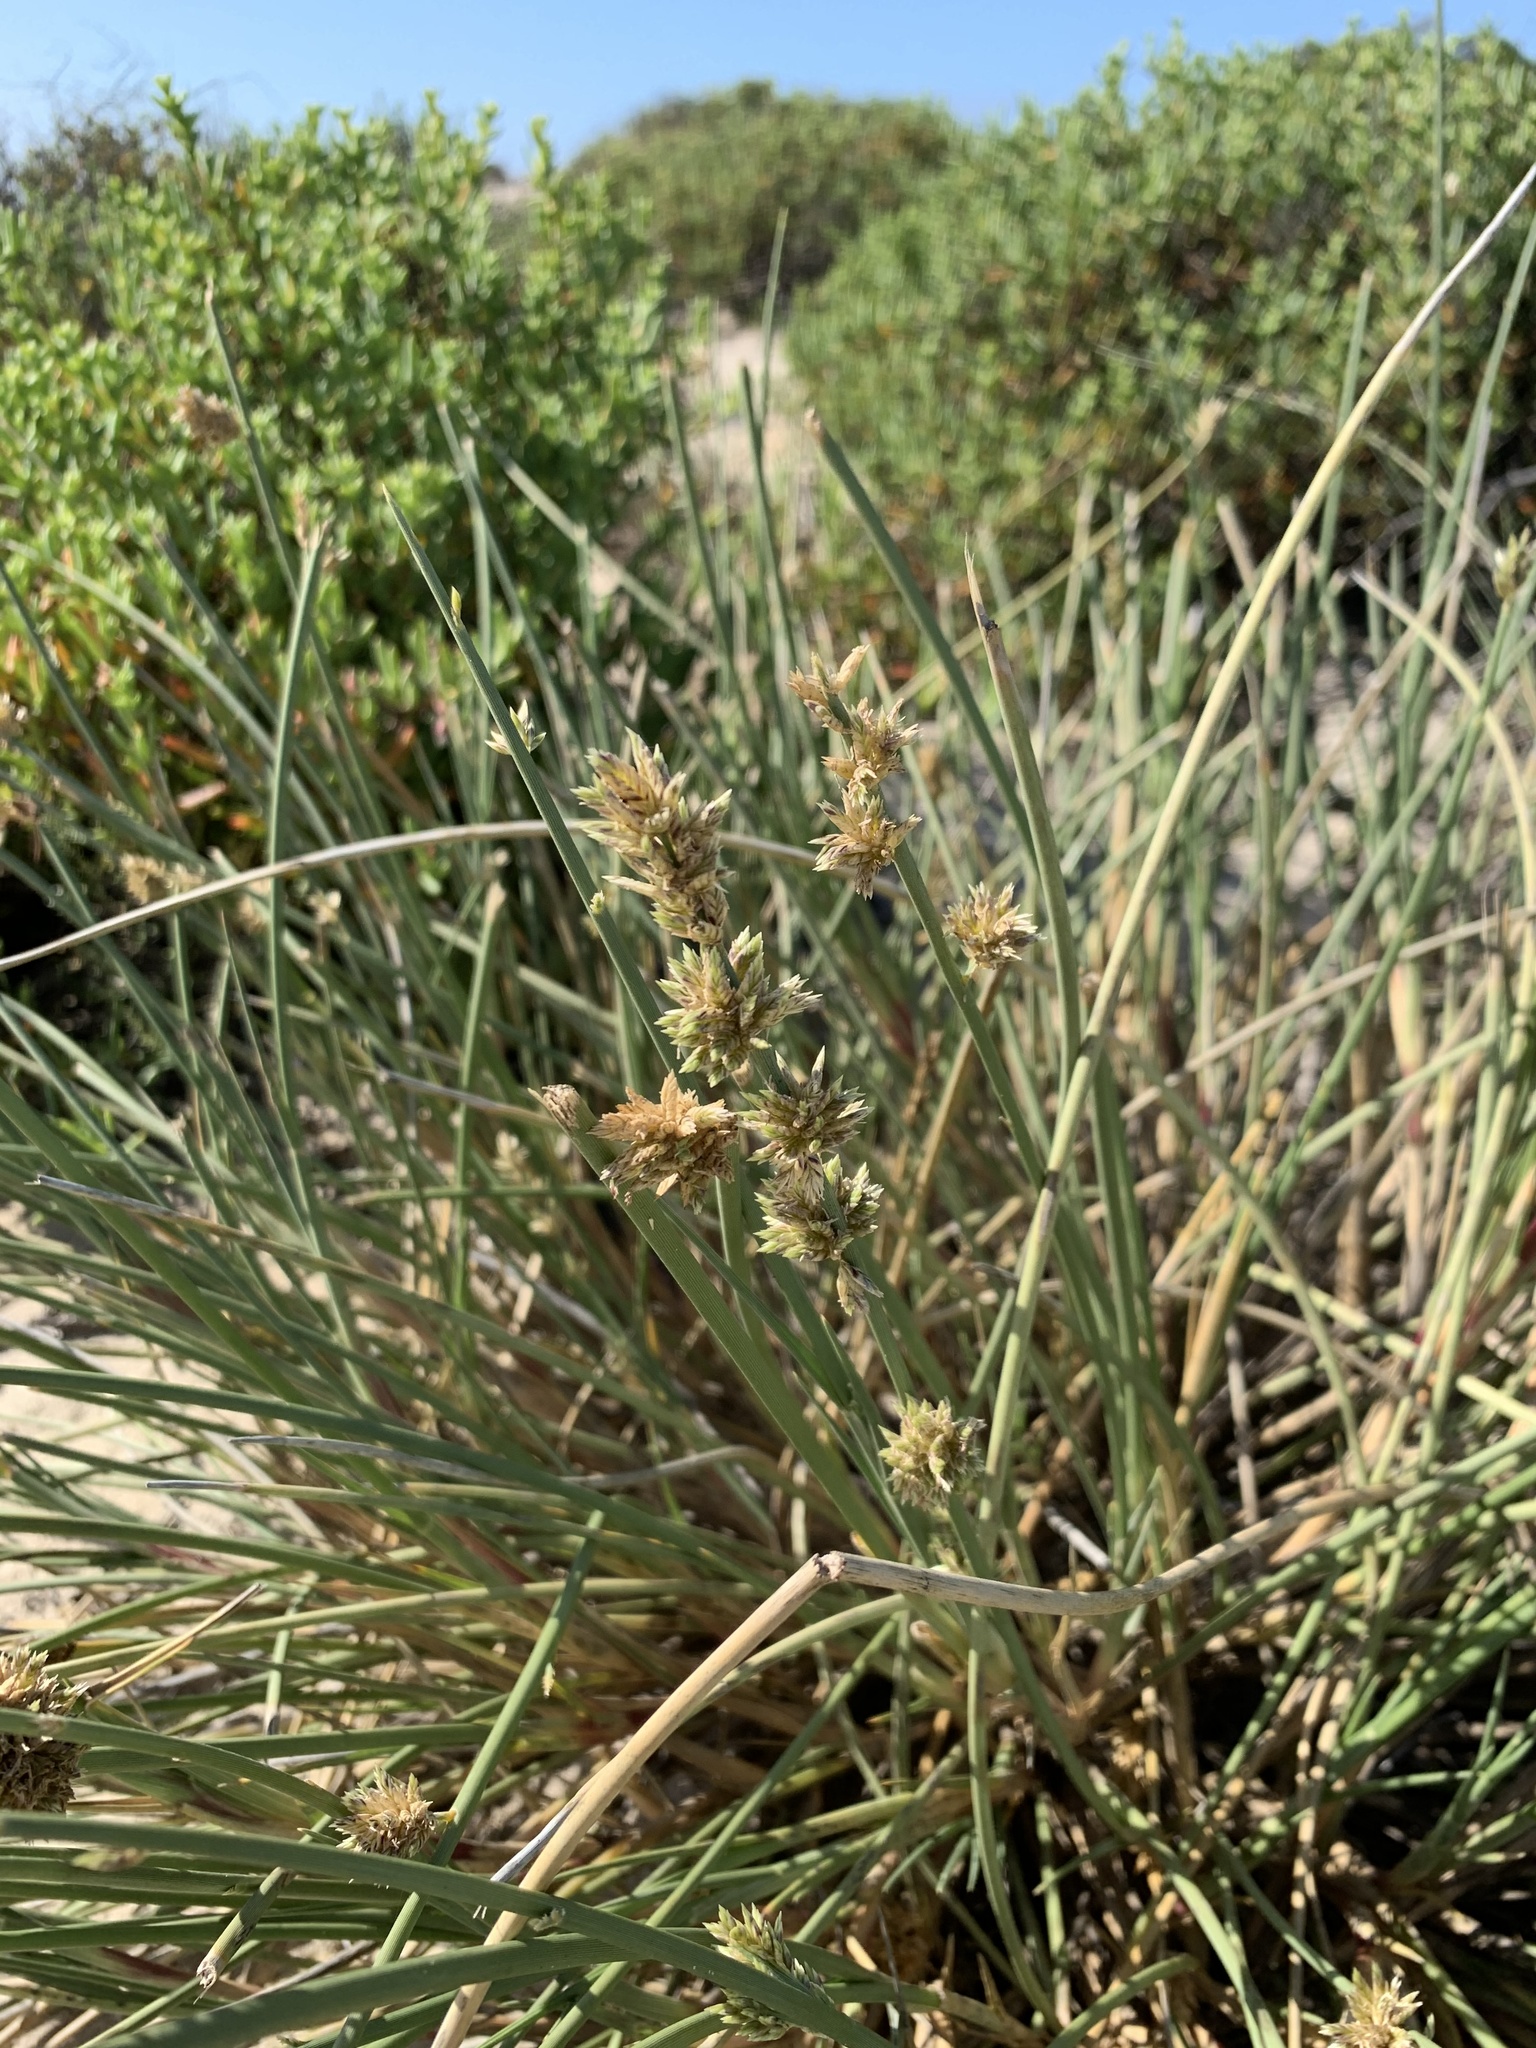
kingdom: Plantae
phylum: Tracheophyta
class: Liliopsida
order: Poales
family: Poaceae
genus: Cladoraphis
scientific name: Cladoraphis cyperoides
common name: Bristly lovegrass
